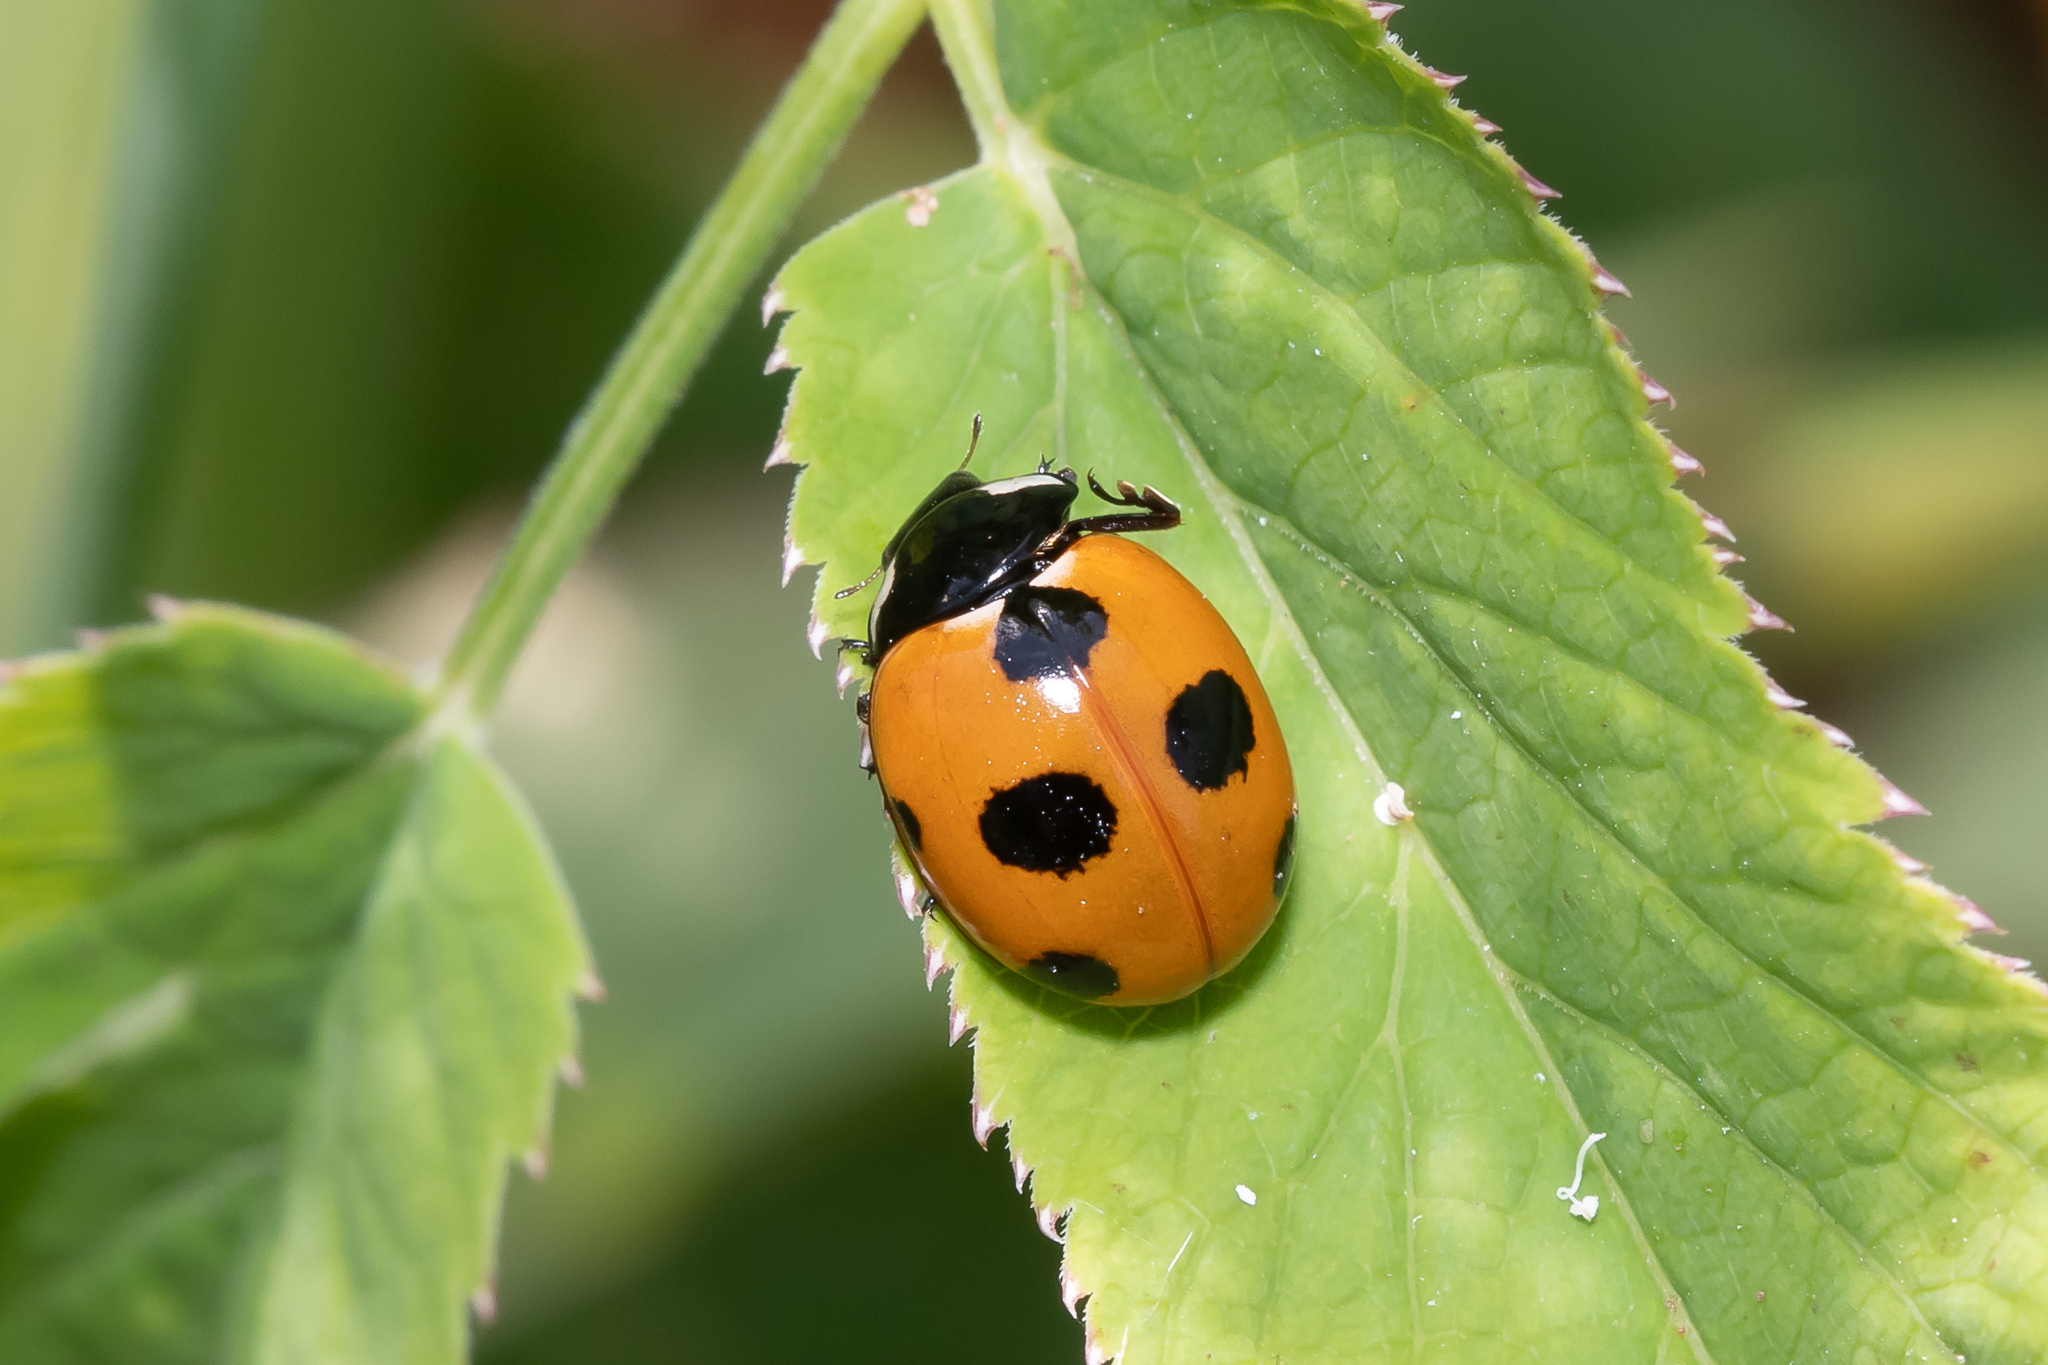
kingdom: Animalia
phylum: Arthropoda
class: Insecta
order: Coleoptera
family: Coccinellidae
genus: Coccinella
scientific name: Coccinella magnifica
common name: Scarce 7-spot ladybird
